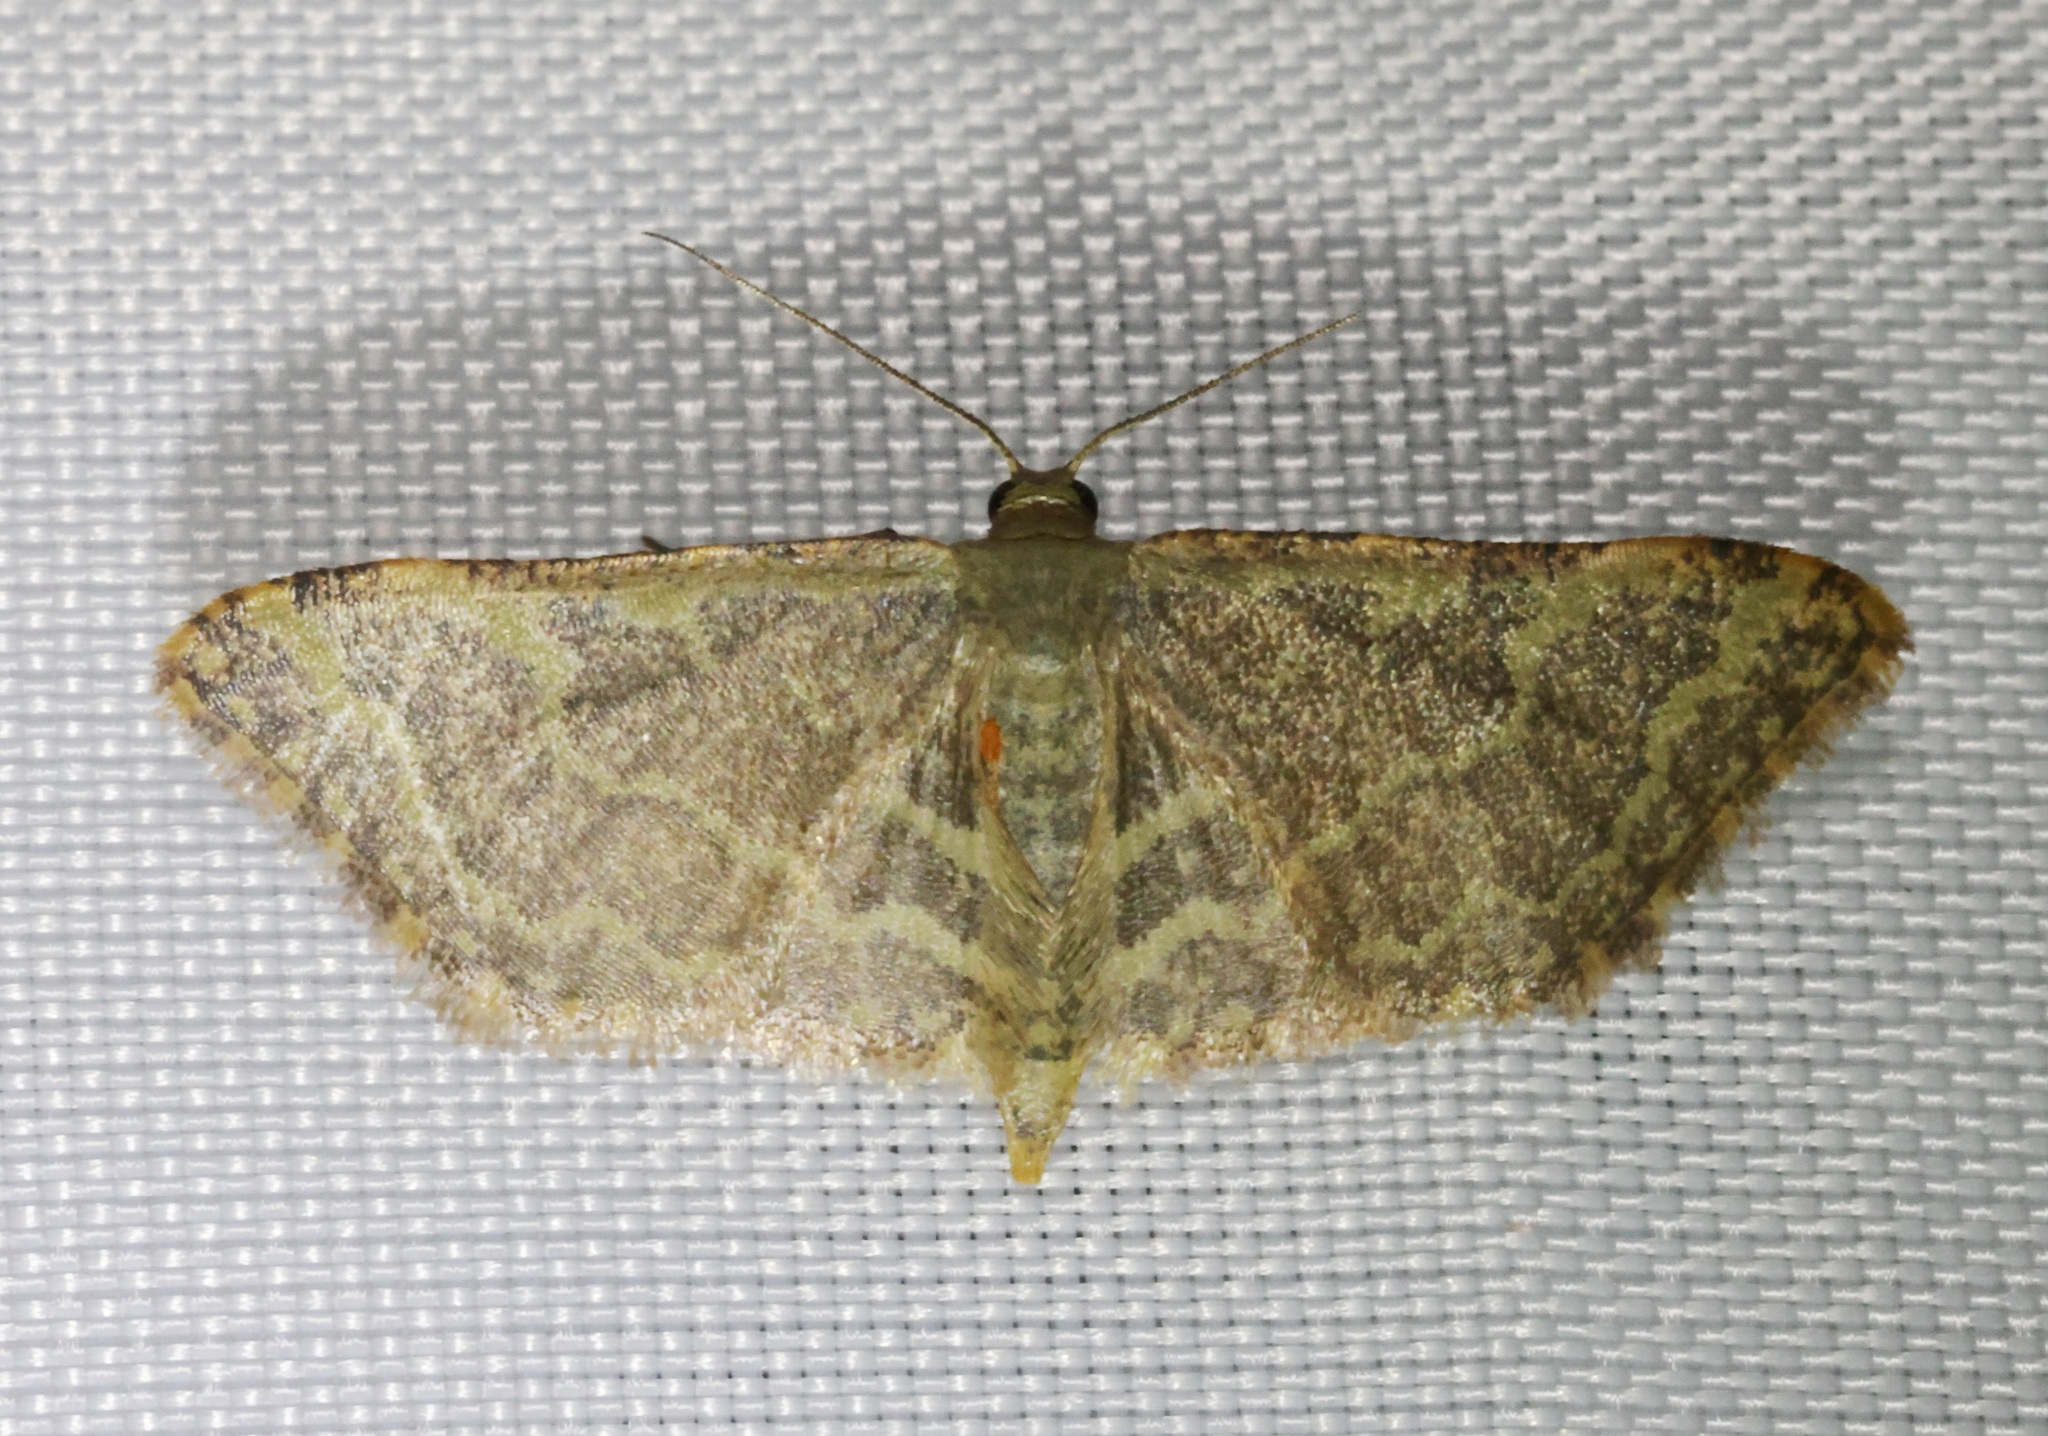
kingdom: Animalia
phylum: Arthropoda
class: Insecta
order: Lepidoptera
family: Geometridae
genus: Lophophleps
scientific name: Lophophleps purpurea
